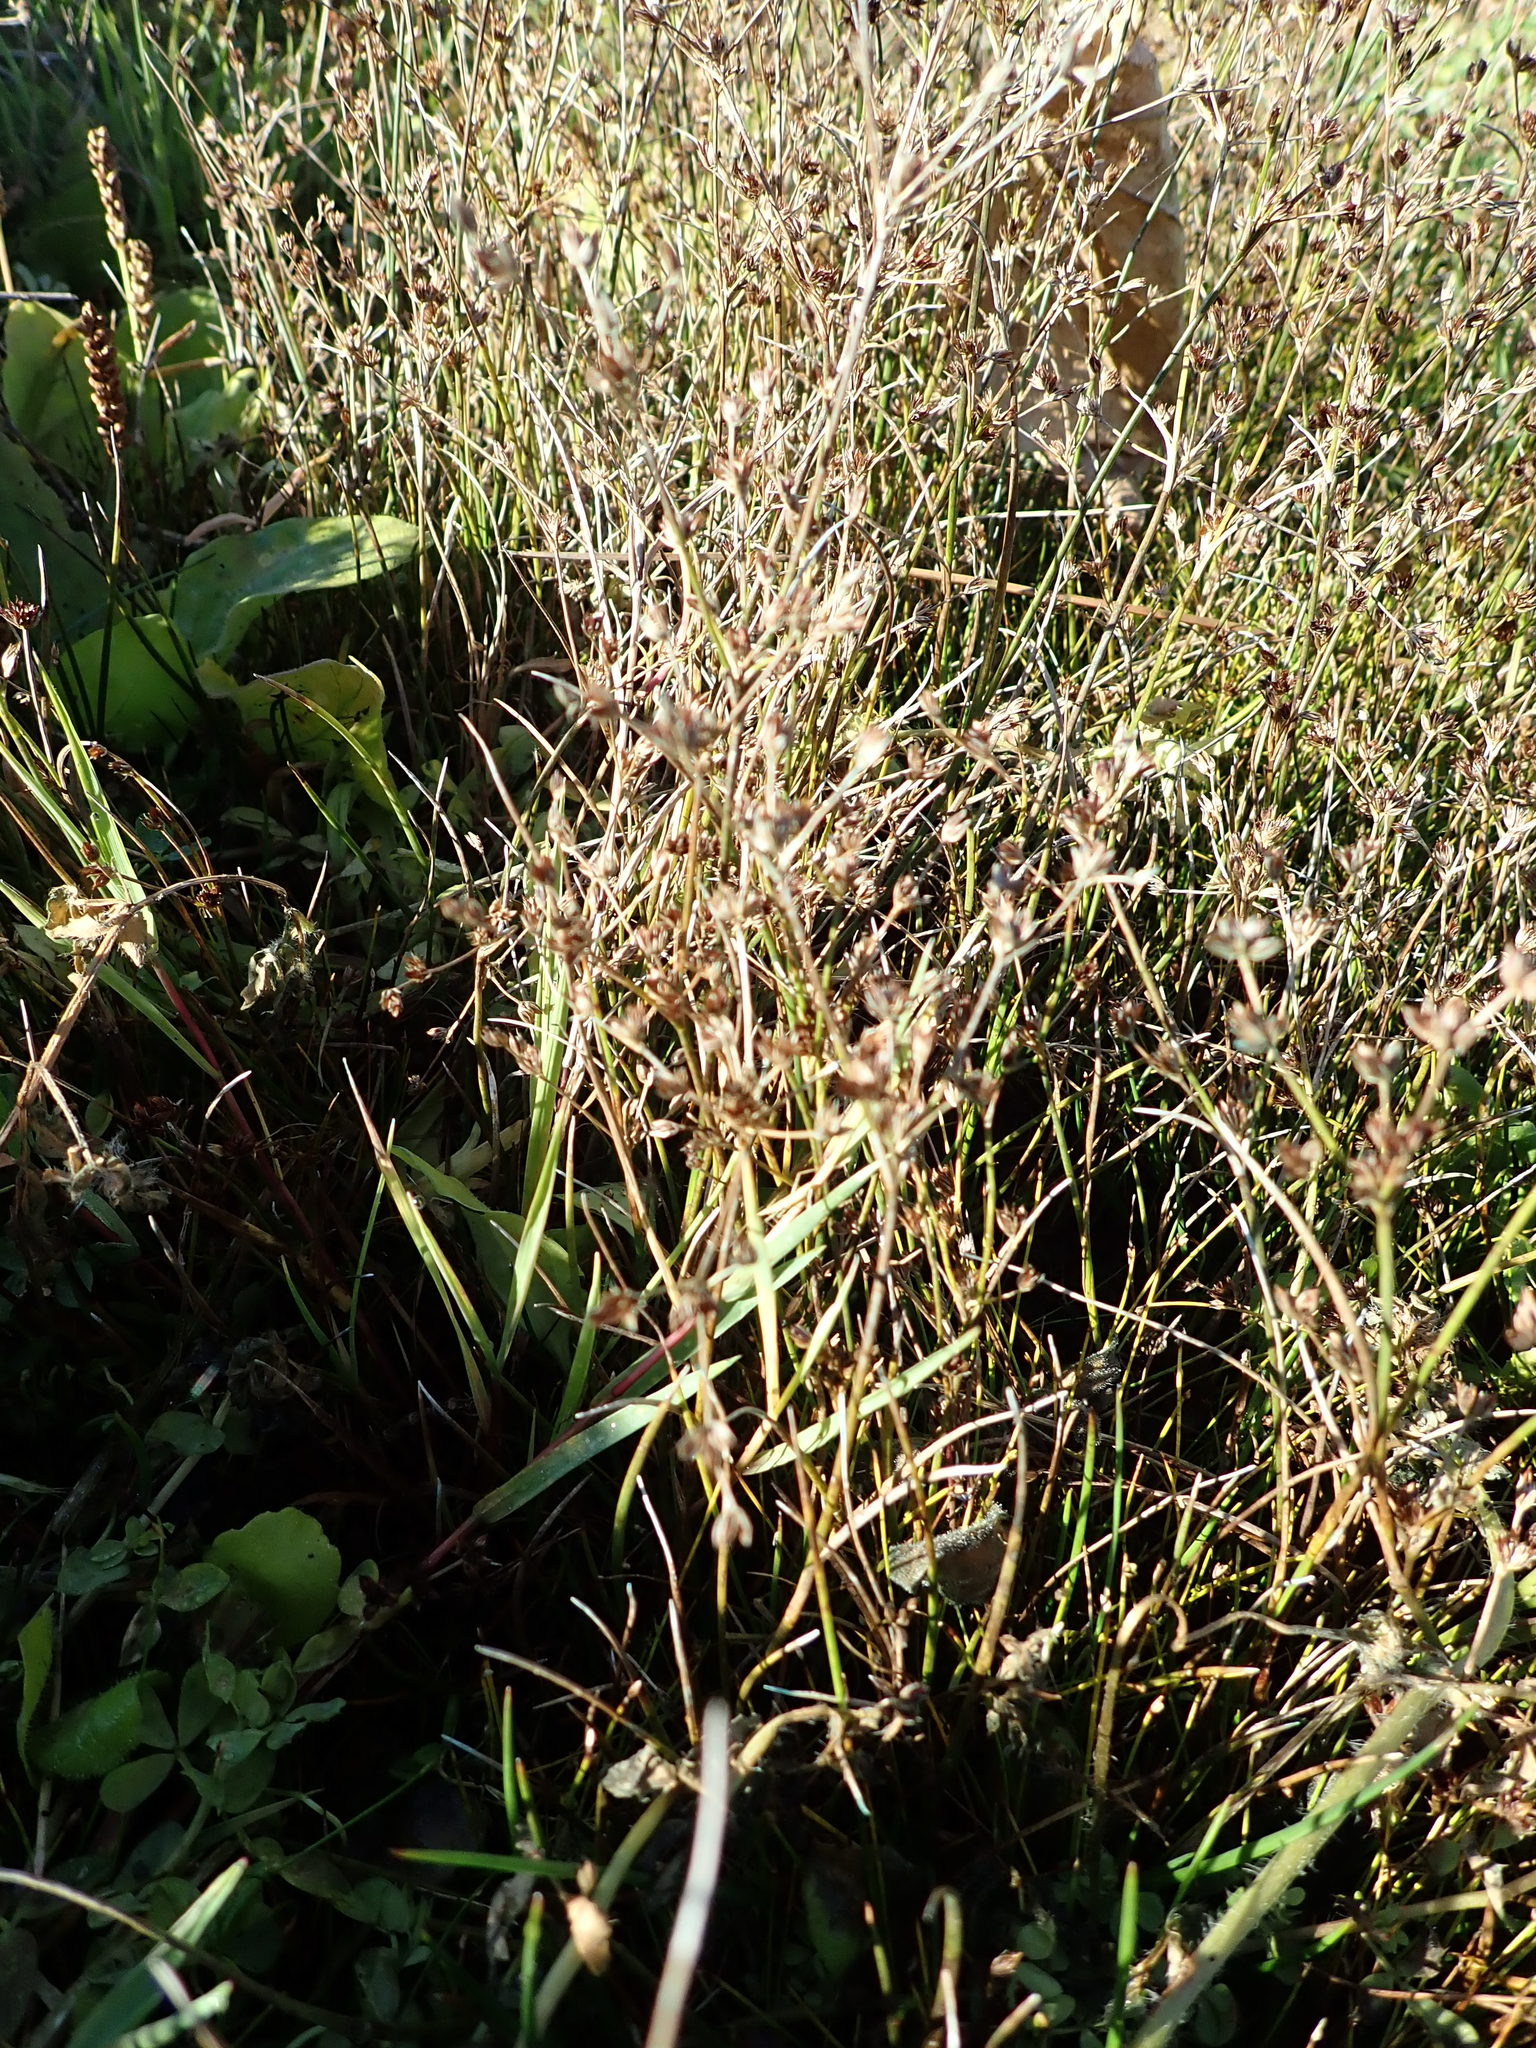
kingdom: Plantae
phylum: Tracheophyta
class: Liliopsida
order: Poales
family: Juncaceae
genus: Juncus
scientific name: Juncus articulatus
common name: Jointed rush
